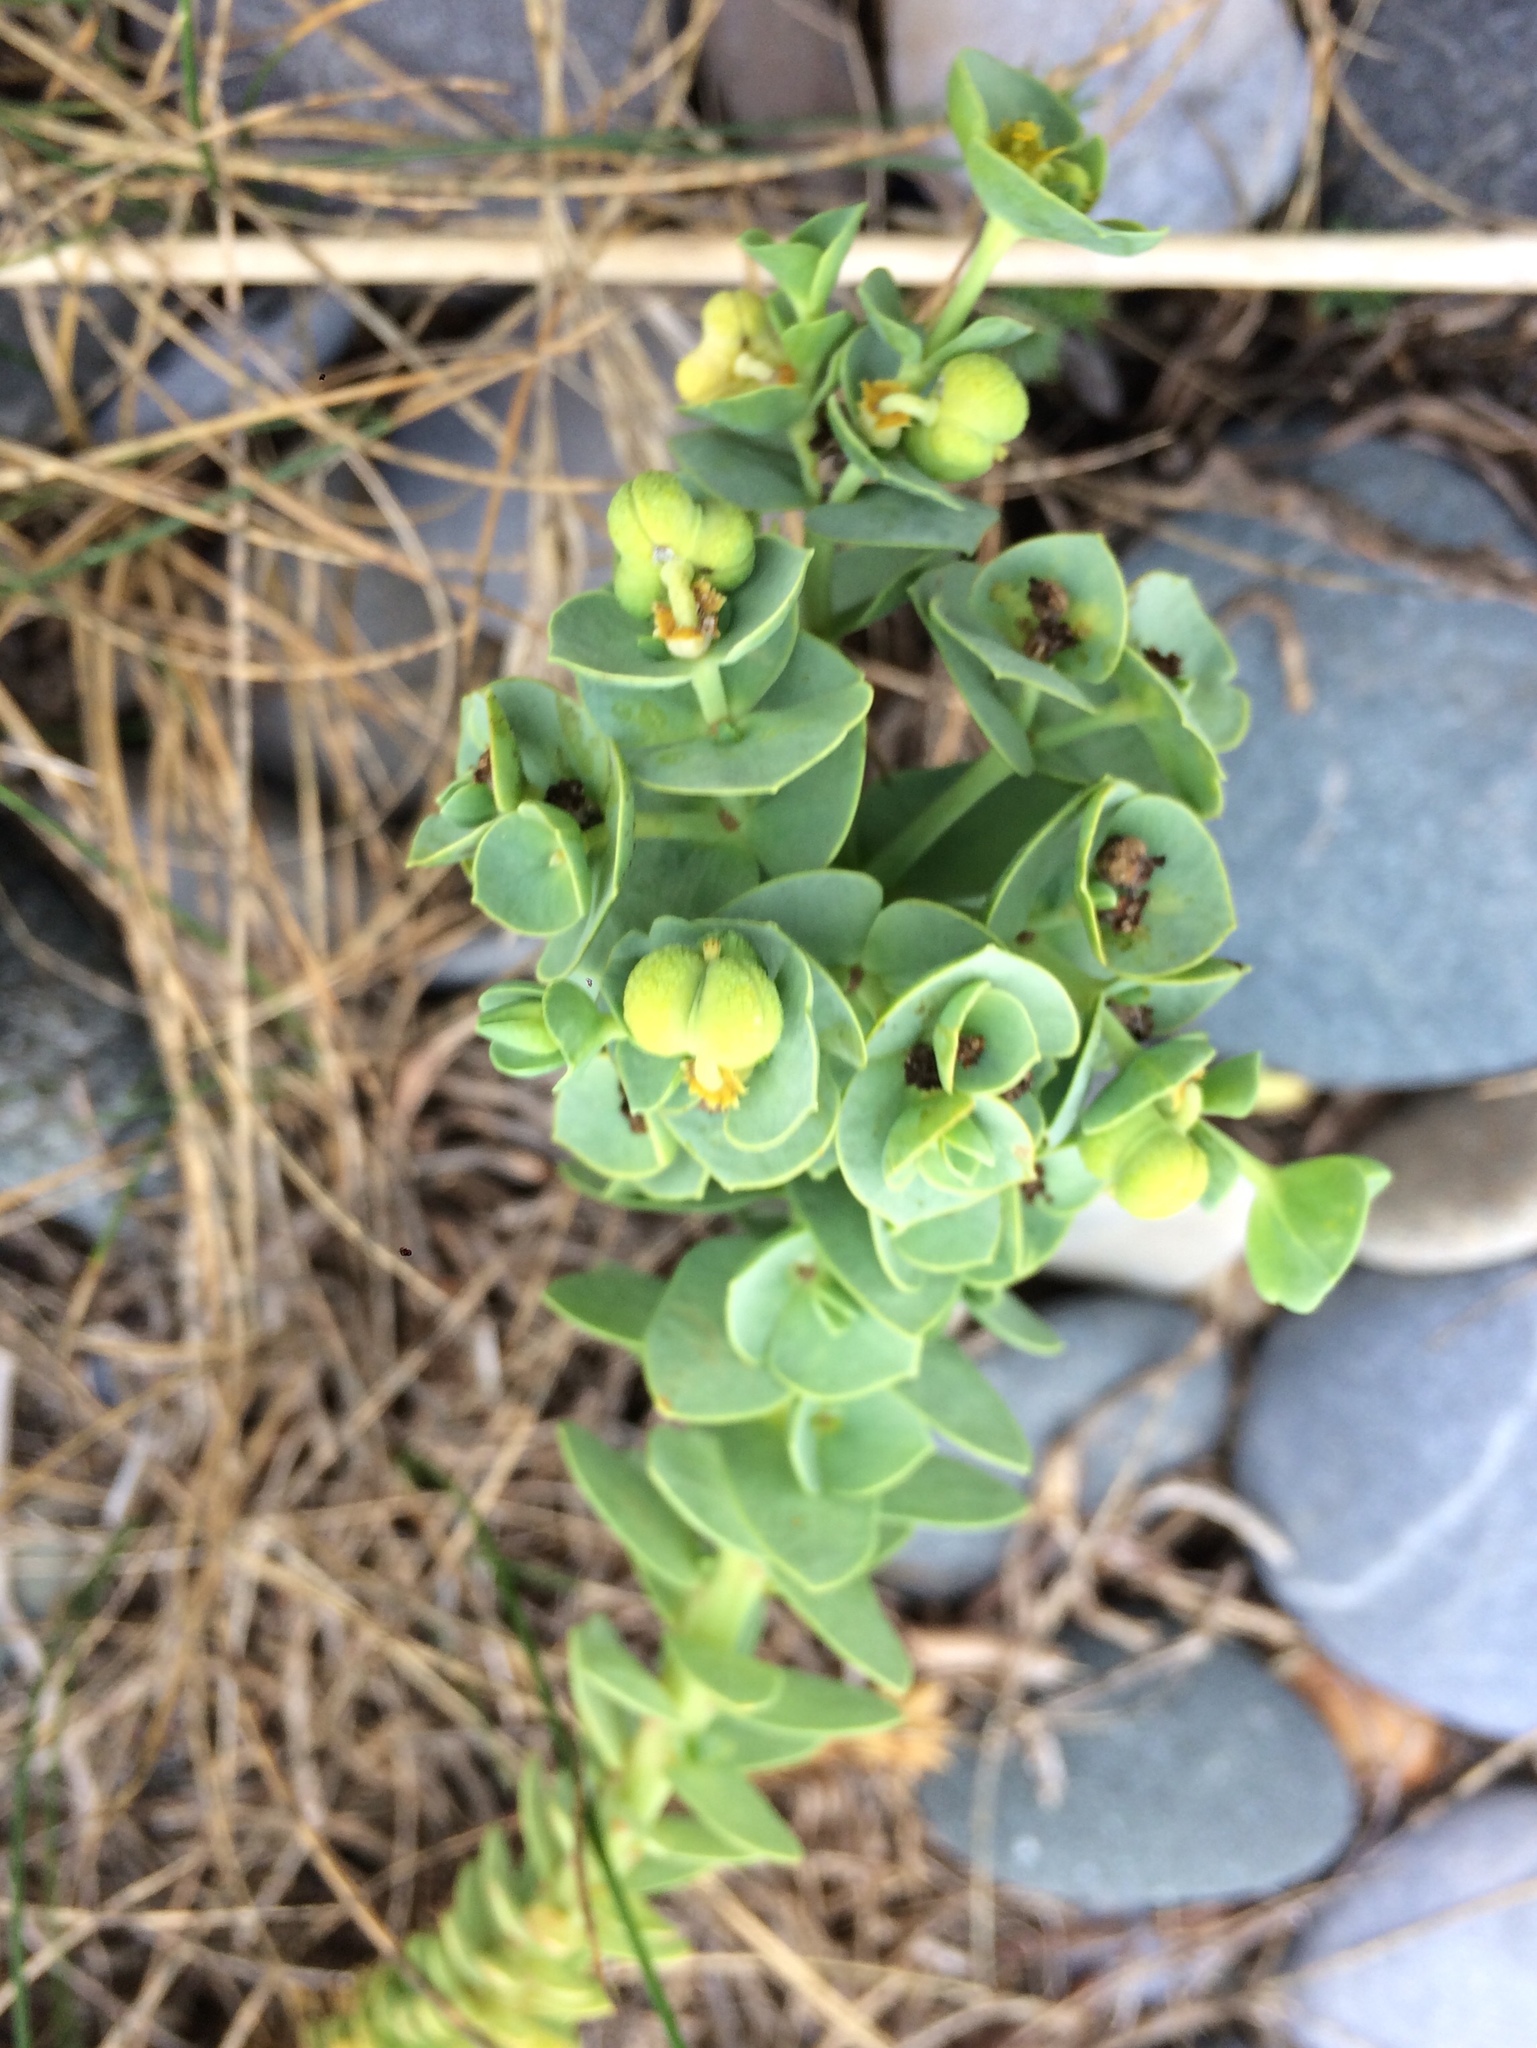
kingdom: Plantae
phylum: Tracheophyta
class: Magnoliopsida
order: Malpighiales
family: Euphorbiaceae
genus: Euphorbia
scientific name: Euphorbia paralias
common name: Sea spurge
